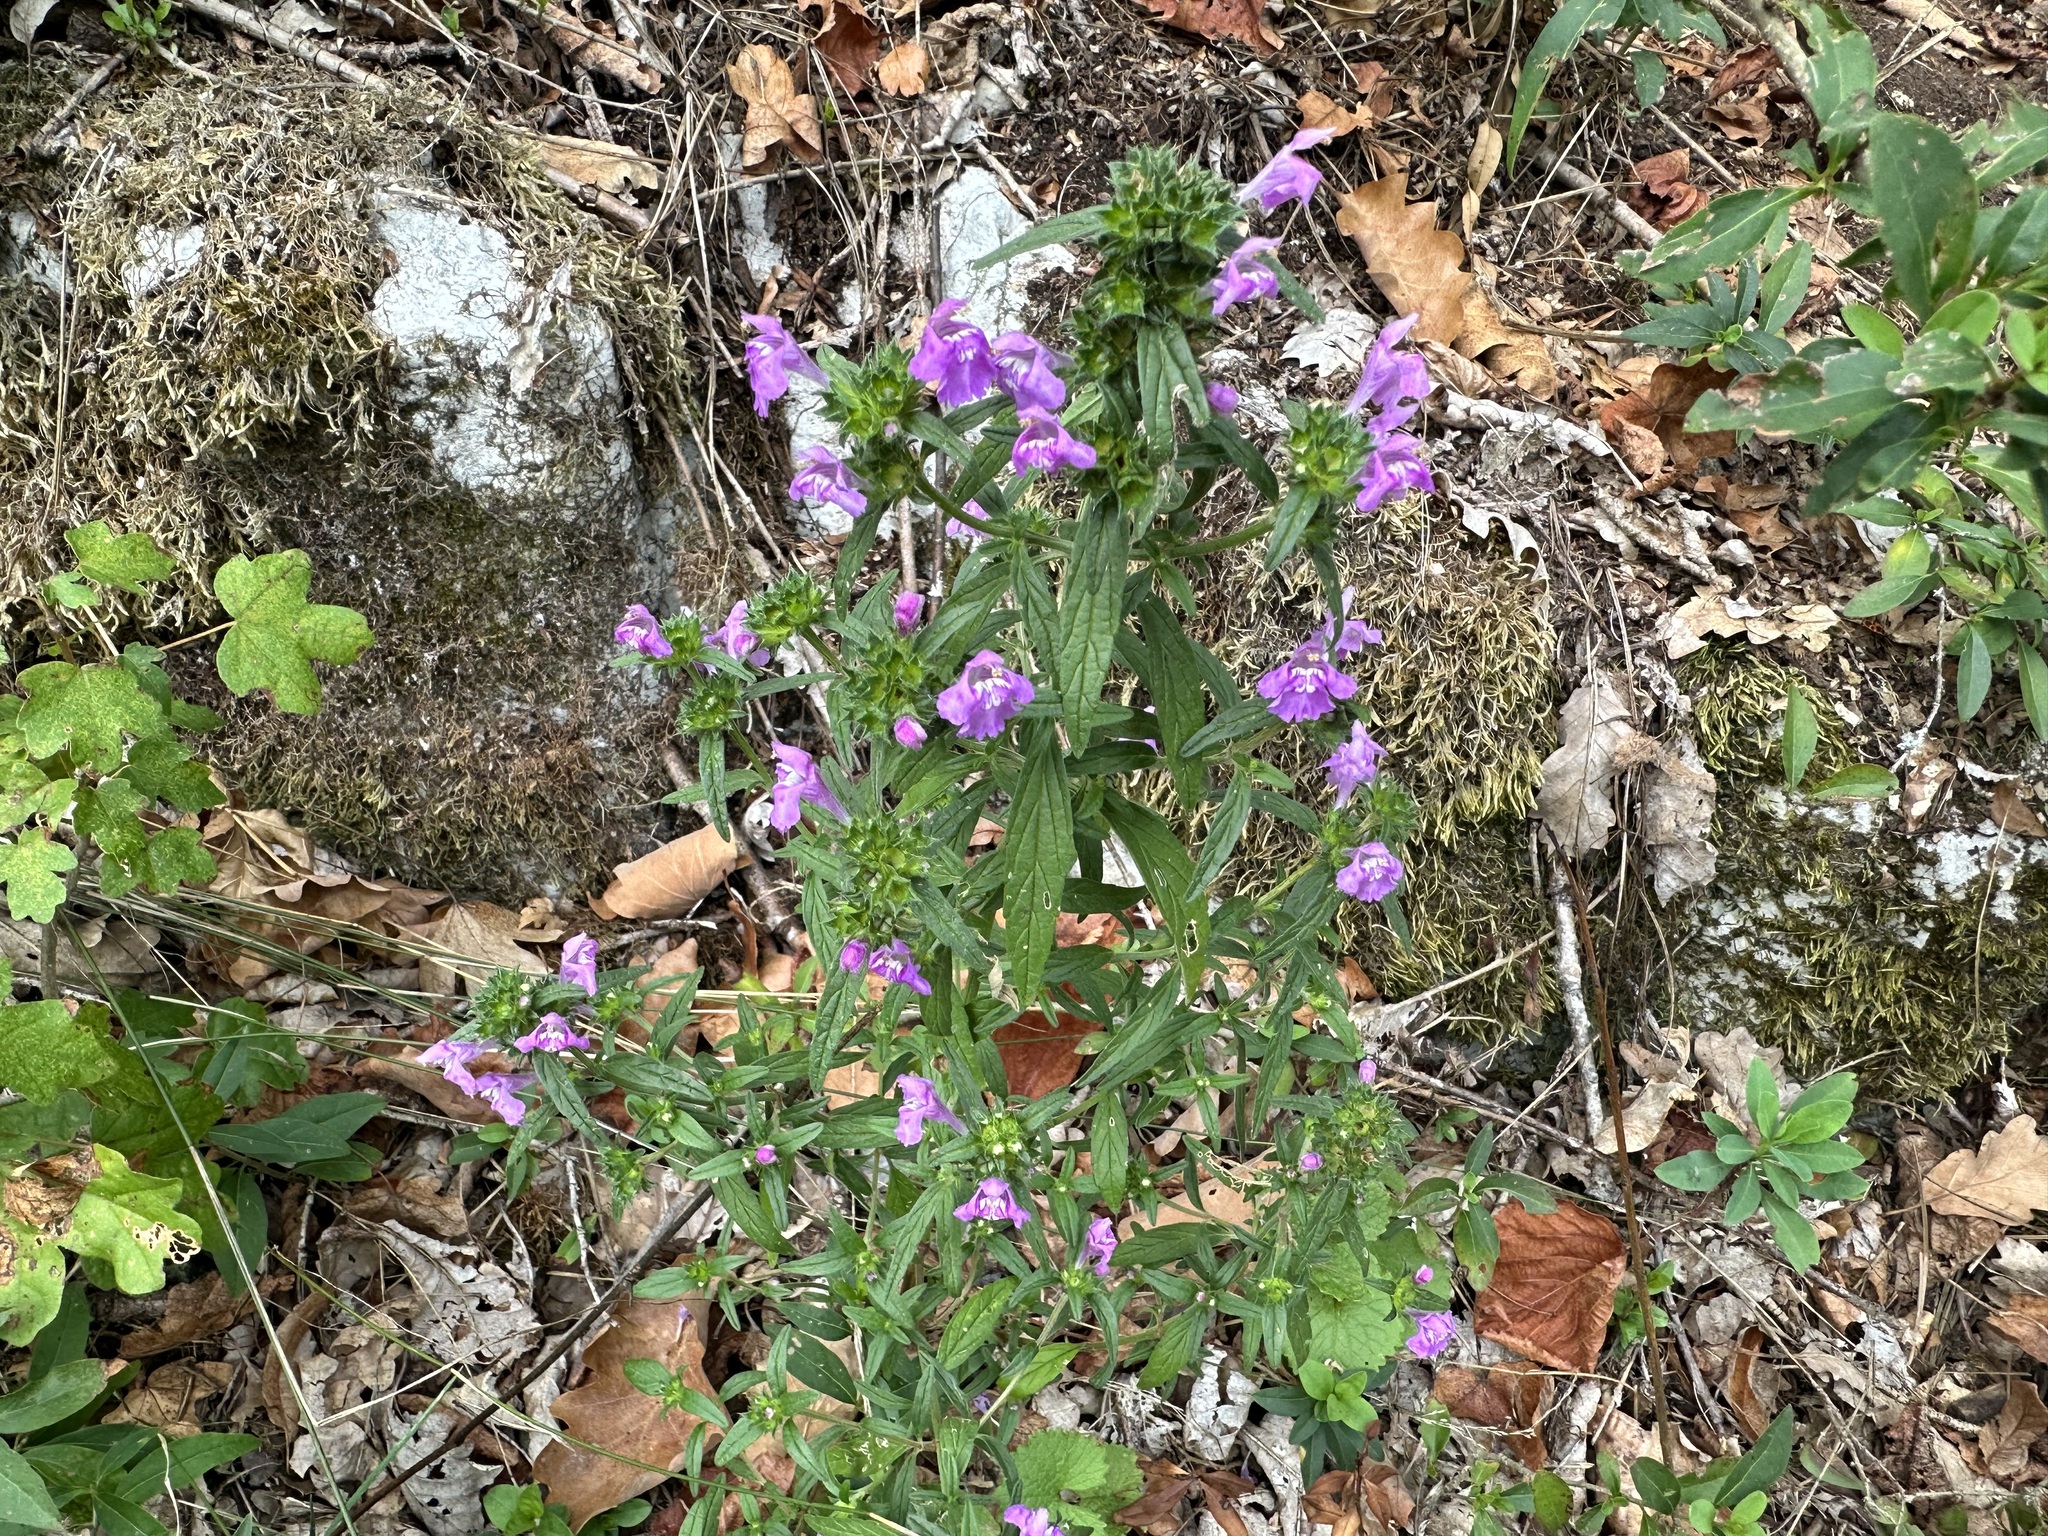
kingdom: Plantae
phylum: Tracheophyta
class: Magnoliopsida
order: Lamiales
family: Lamiaceae
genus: Galeopsis
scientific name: Galeopsis angustifolia
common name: Red hemp-nettle
